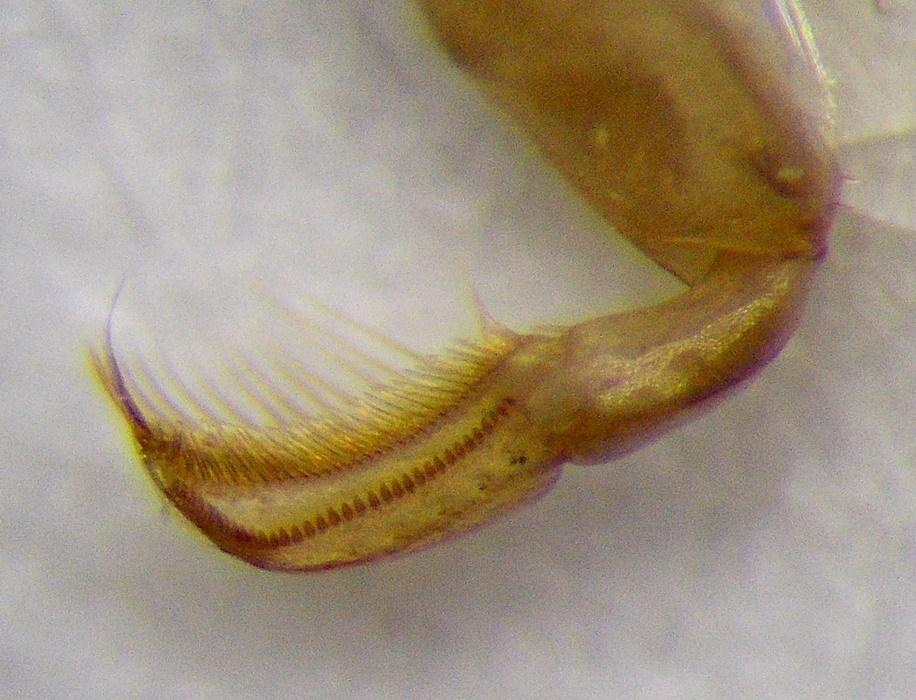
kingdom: Animalia
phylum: Arthropoda
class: Insecta
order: Hemiptera
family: Corixidae
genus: Paracorixa
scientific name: Paracorixa concinna
